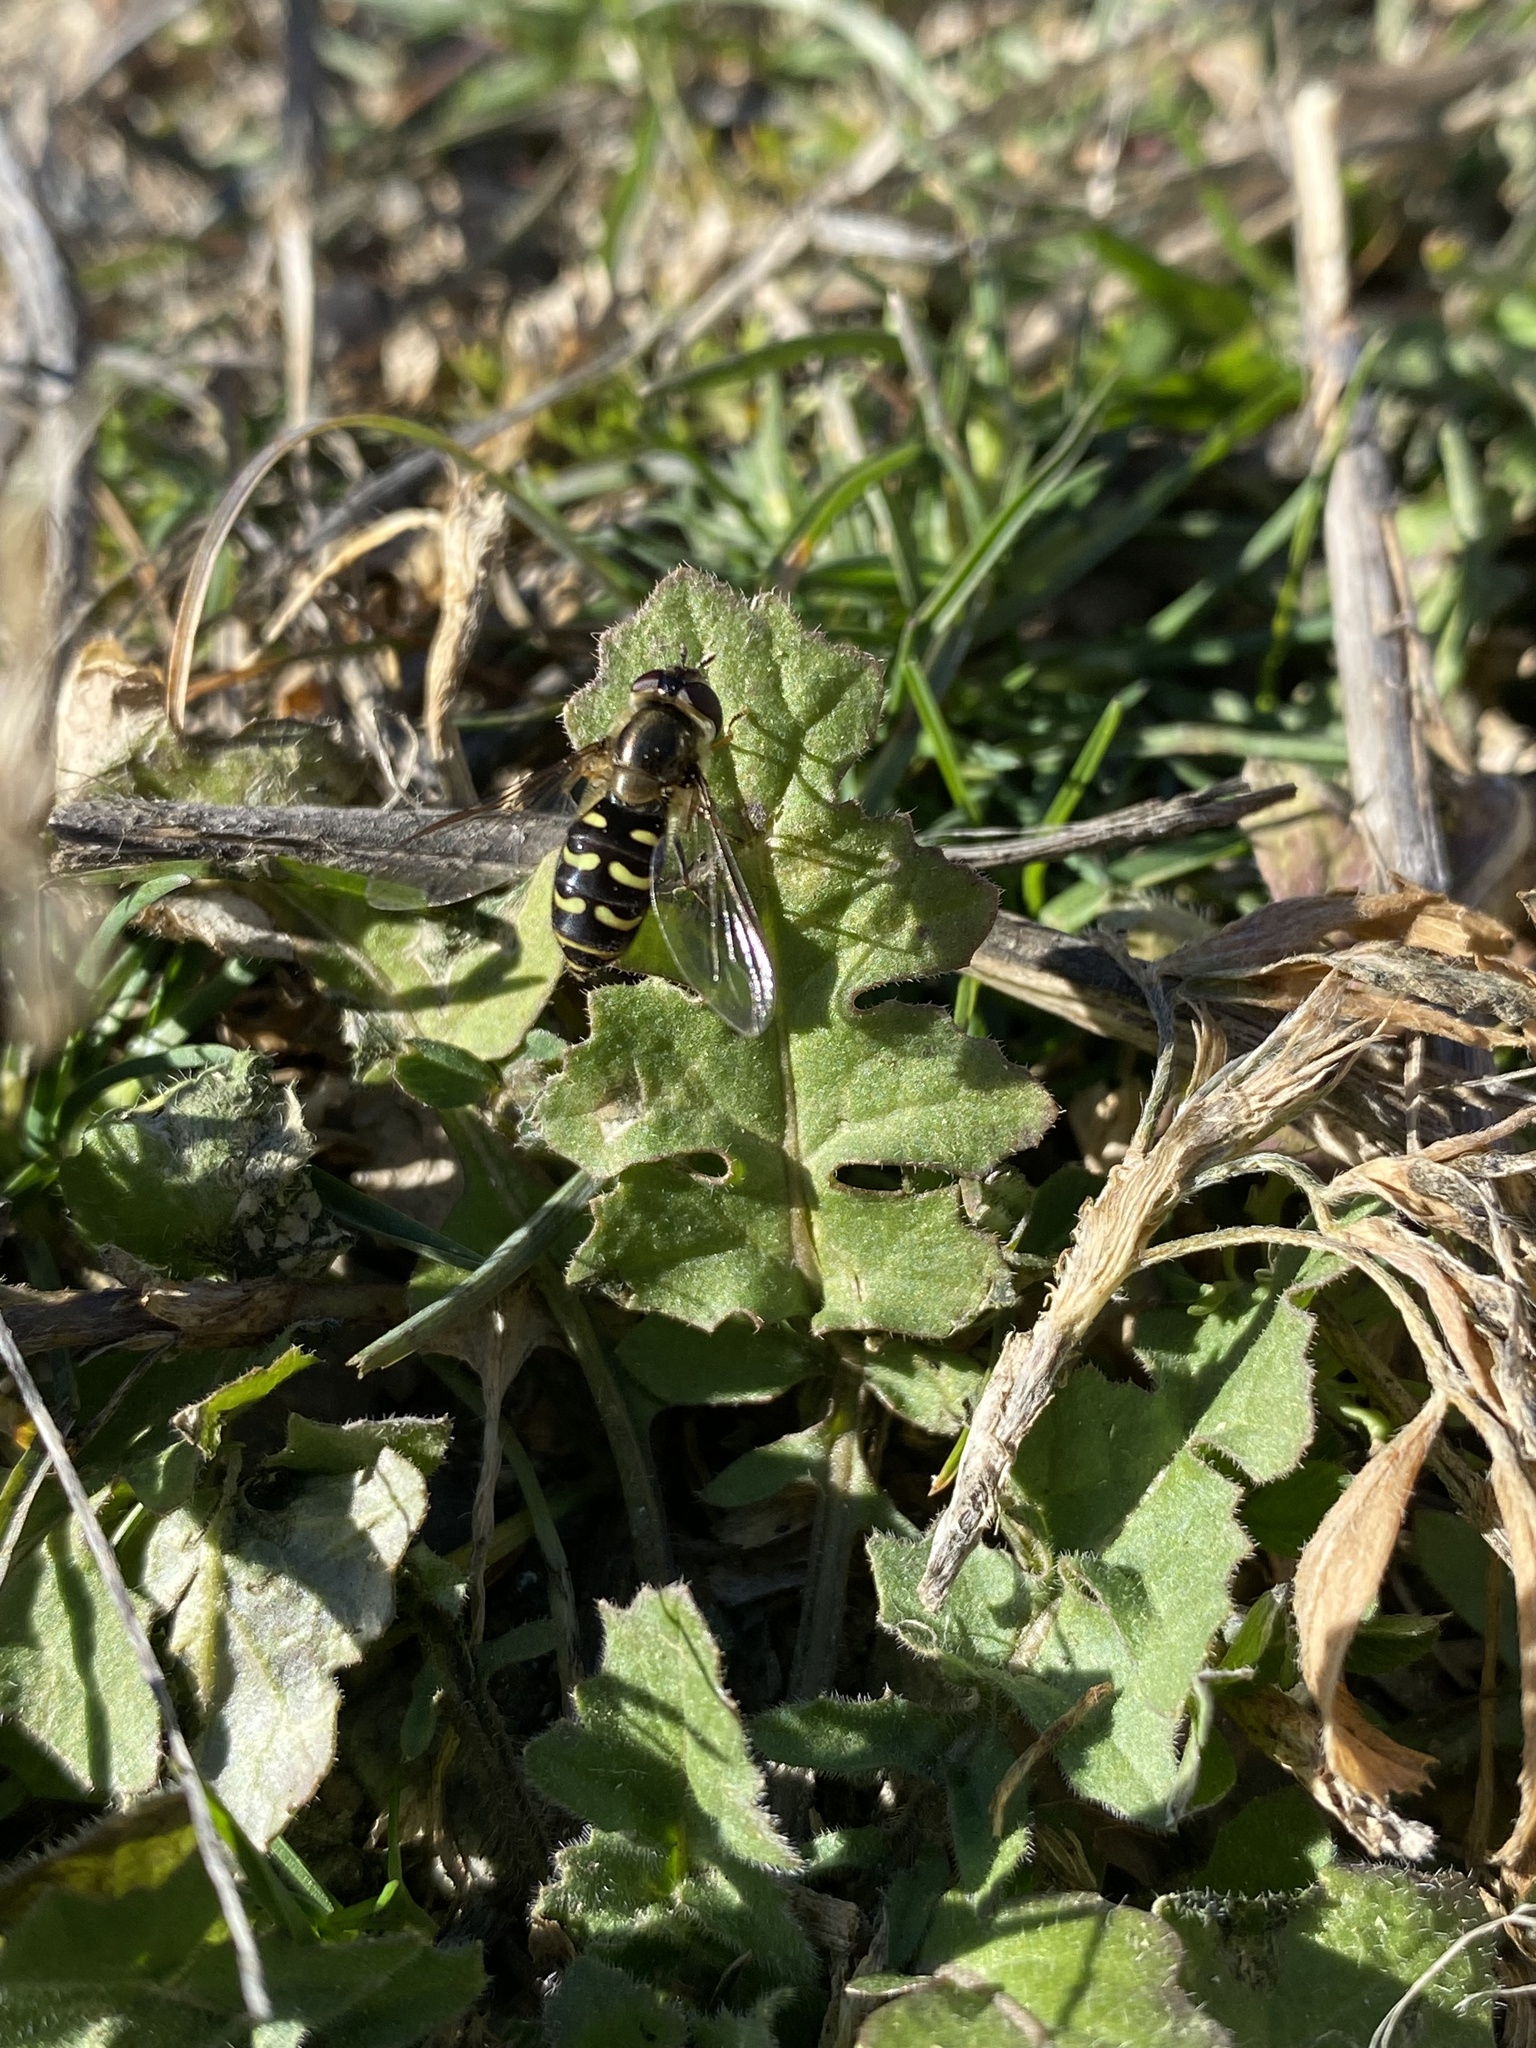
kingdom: Animalia
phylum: Arthropoda
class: Insecta
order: Diptera
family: Syrphidae
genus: Lapposyrphus
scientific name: Lapposyrphus lapponicus
